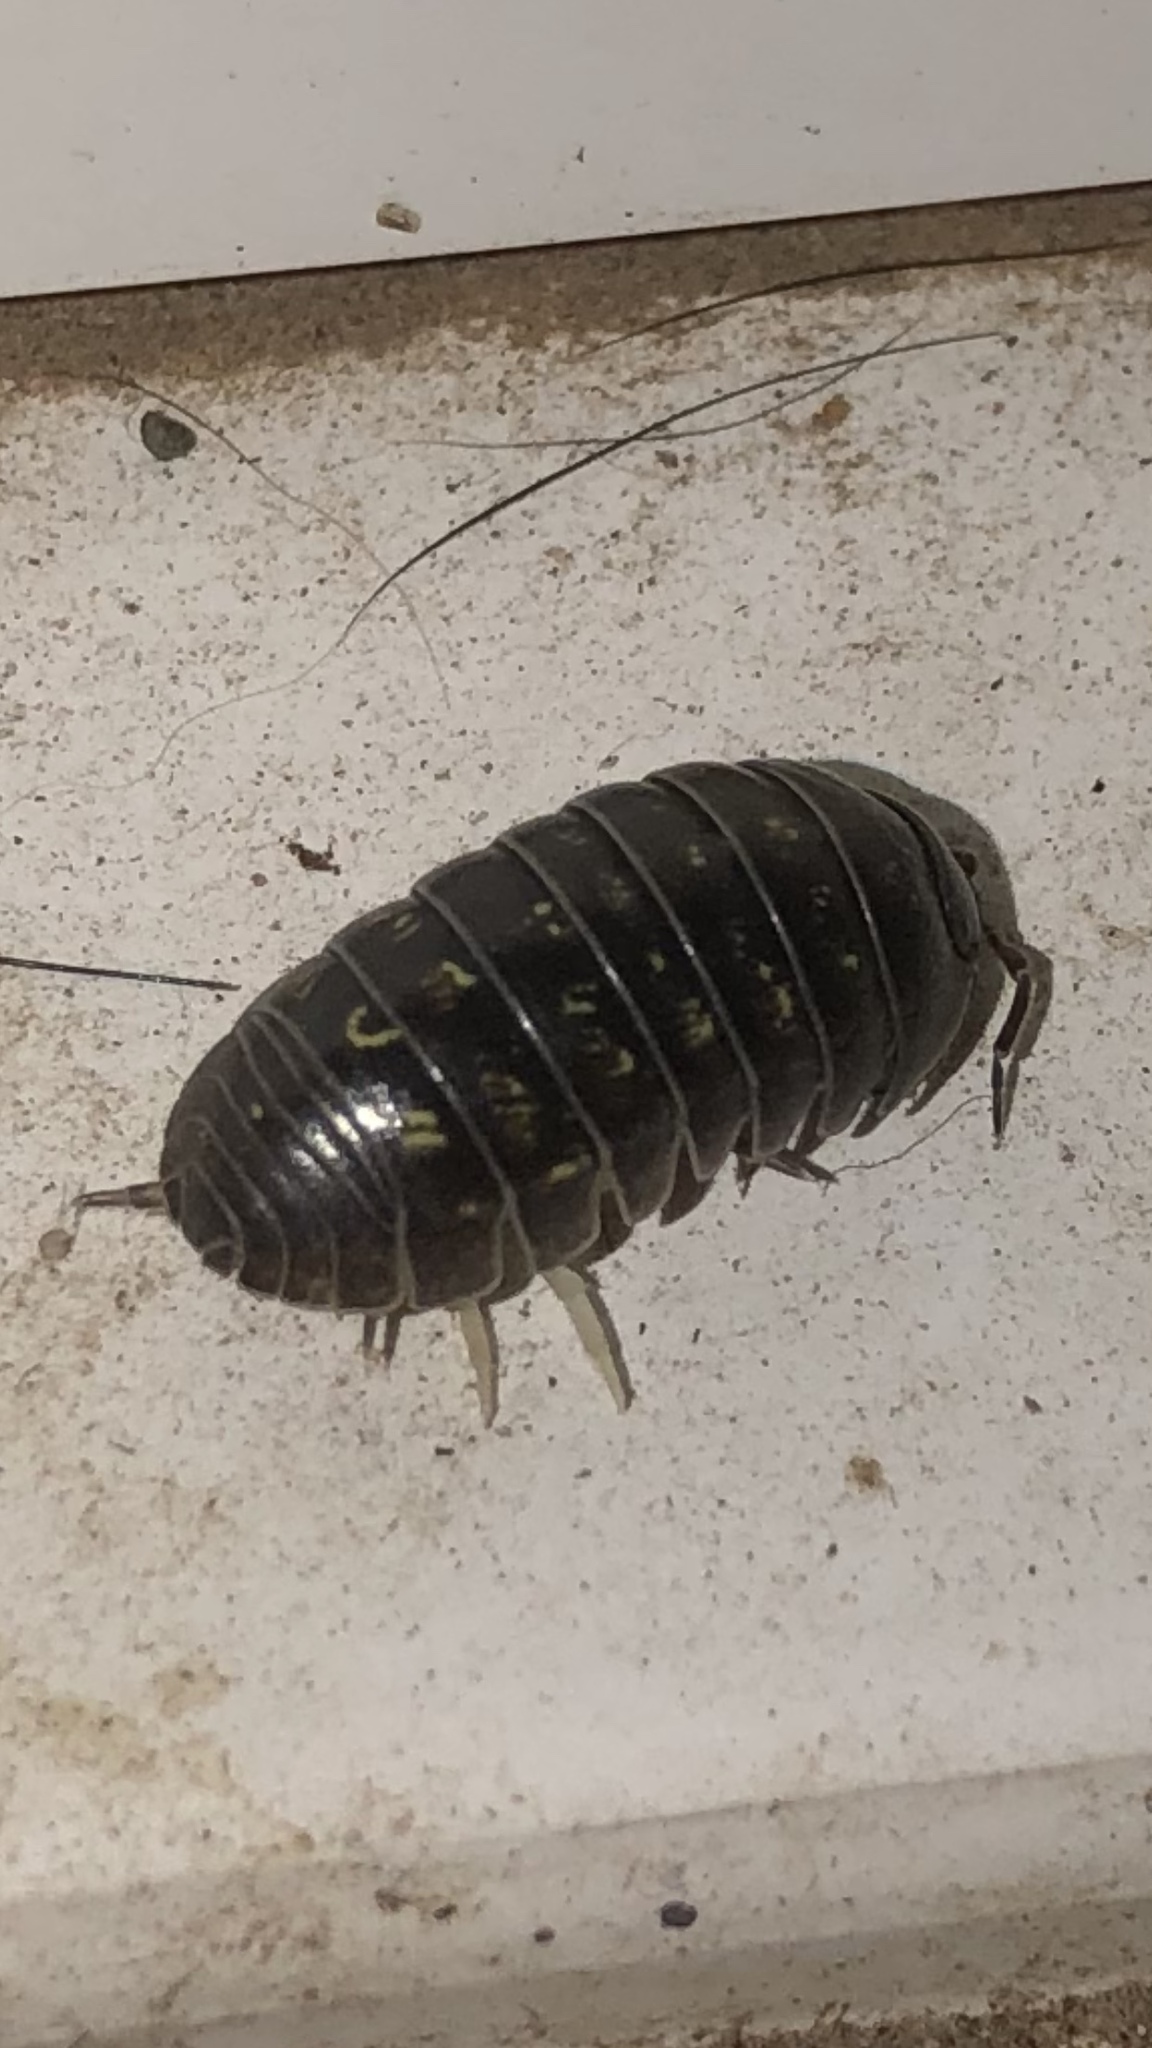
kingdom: Animalia
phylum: Arthropoda
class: Malacostraca
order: Isopoda
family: Armadillidiidae
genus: Armadillidium
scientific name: Armadillidium vulgare
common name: Common pill woodlouse
